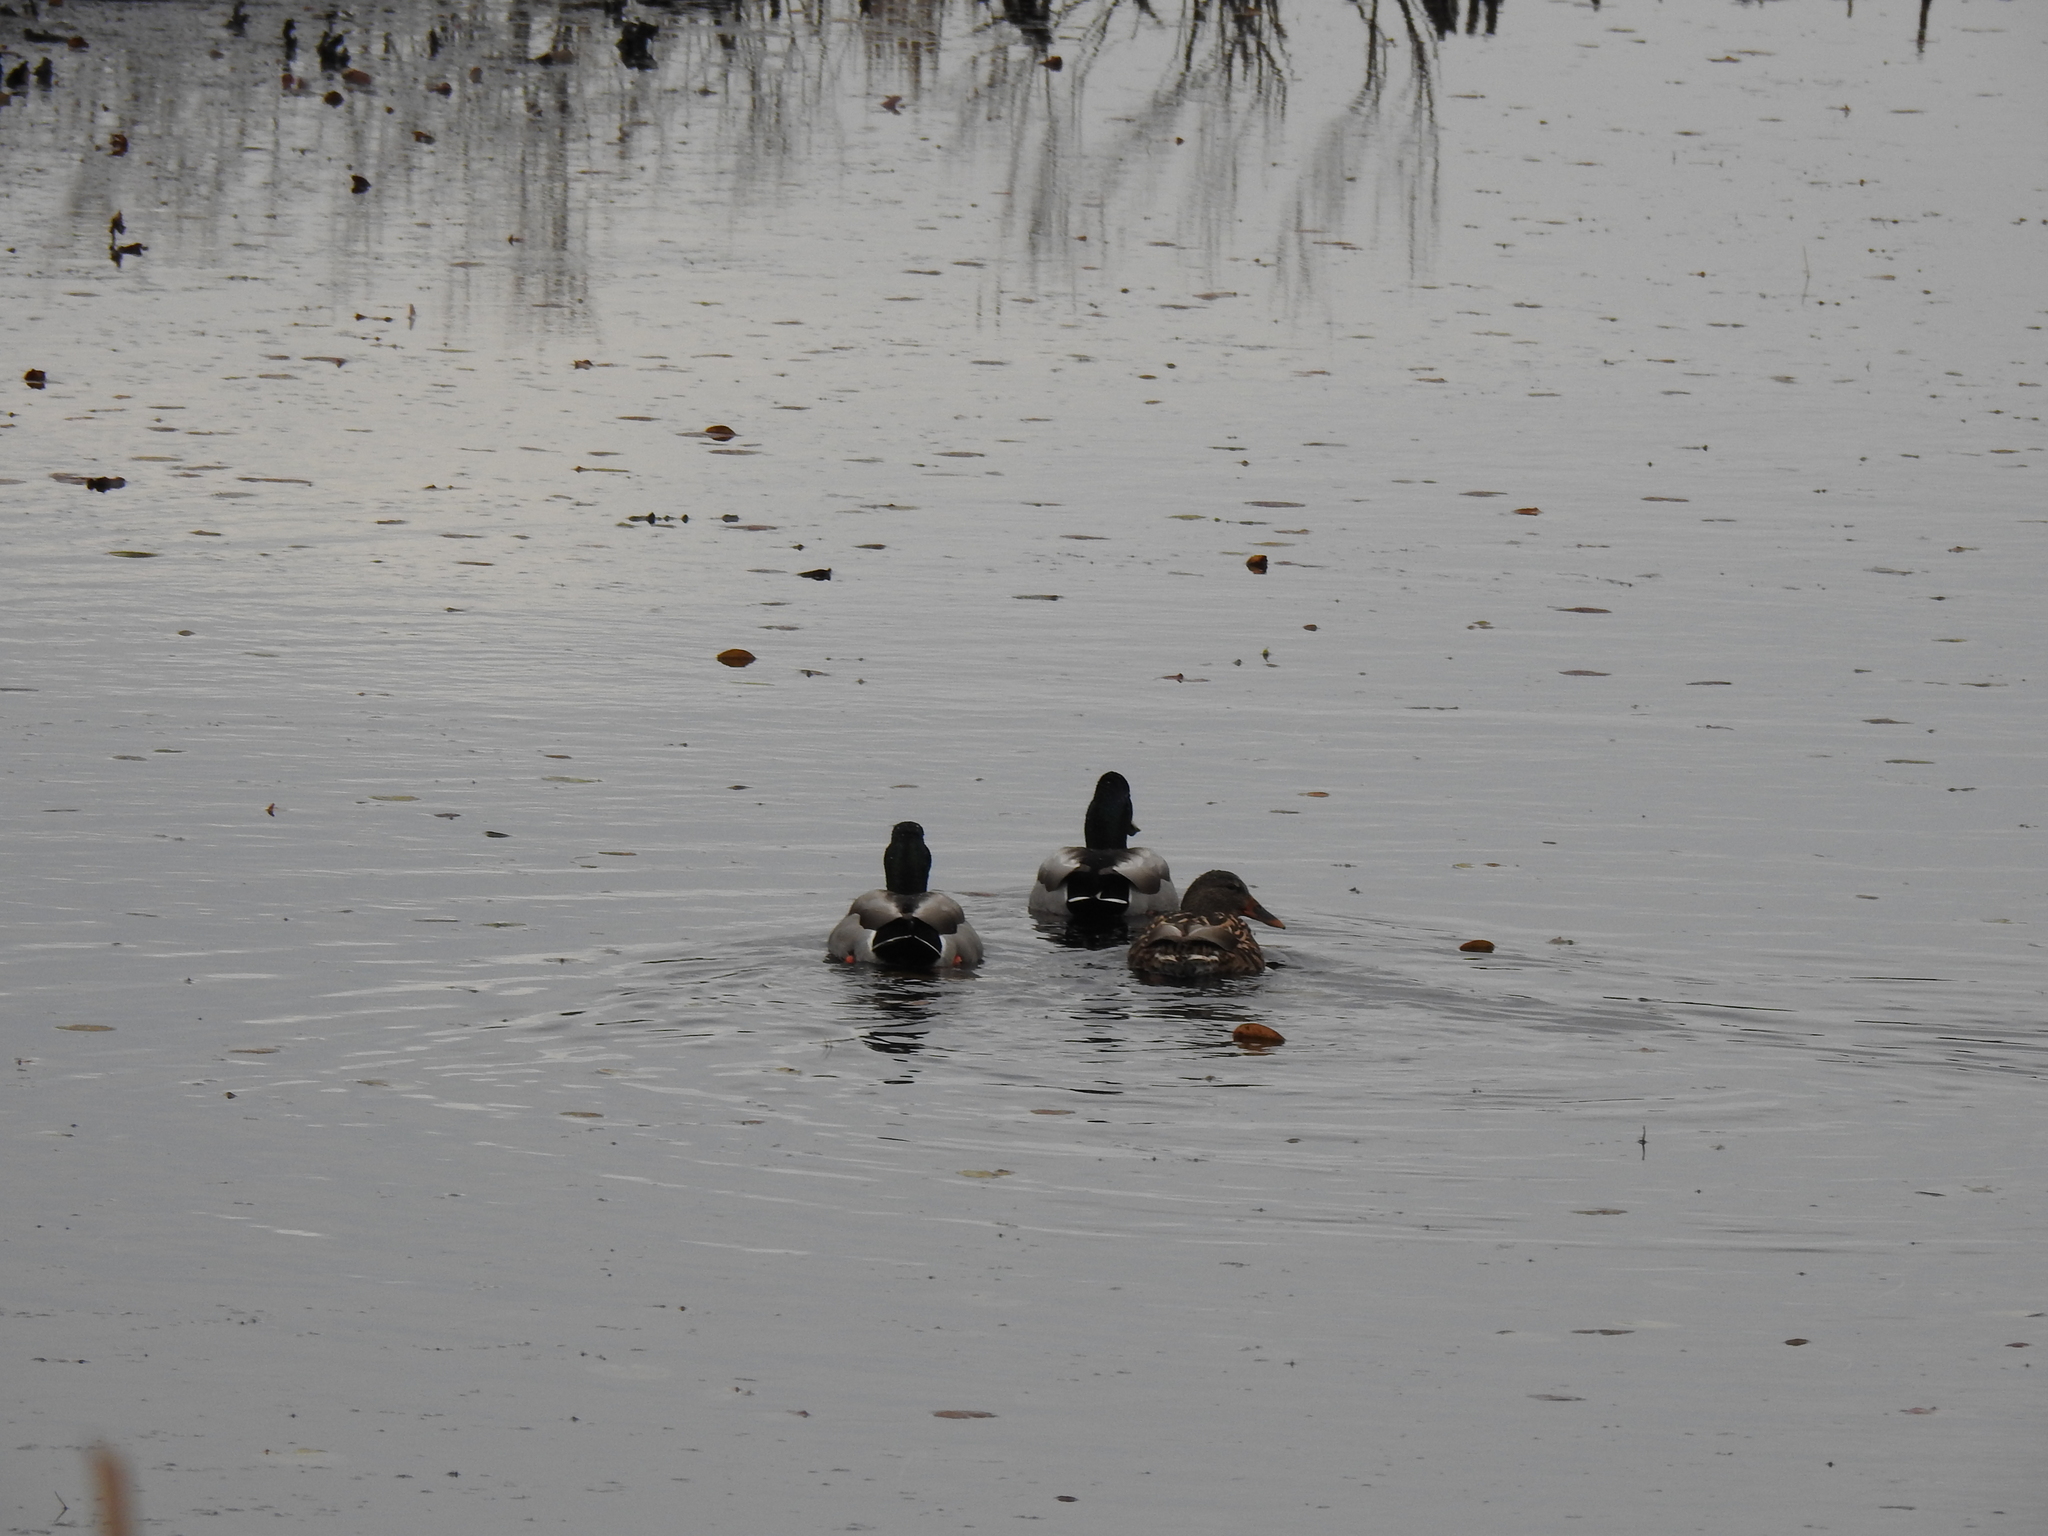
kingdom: Animalia
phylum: Chordata
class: Aves
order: Anseriformes
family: Anatidae
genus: Anas
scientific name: Anas platyrhynchos
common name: Mallard
